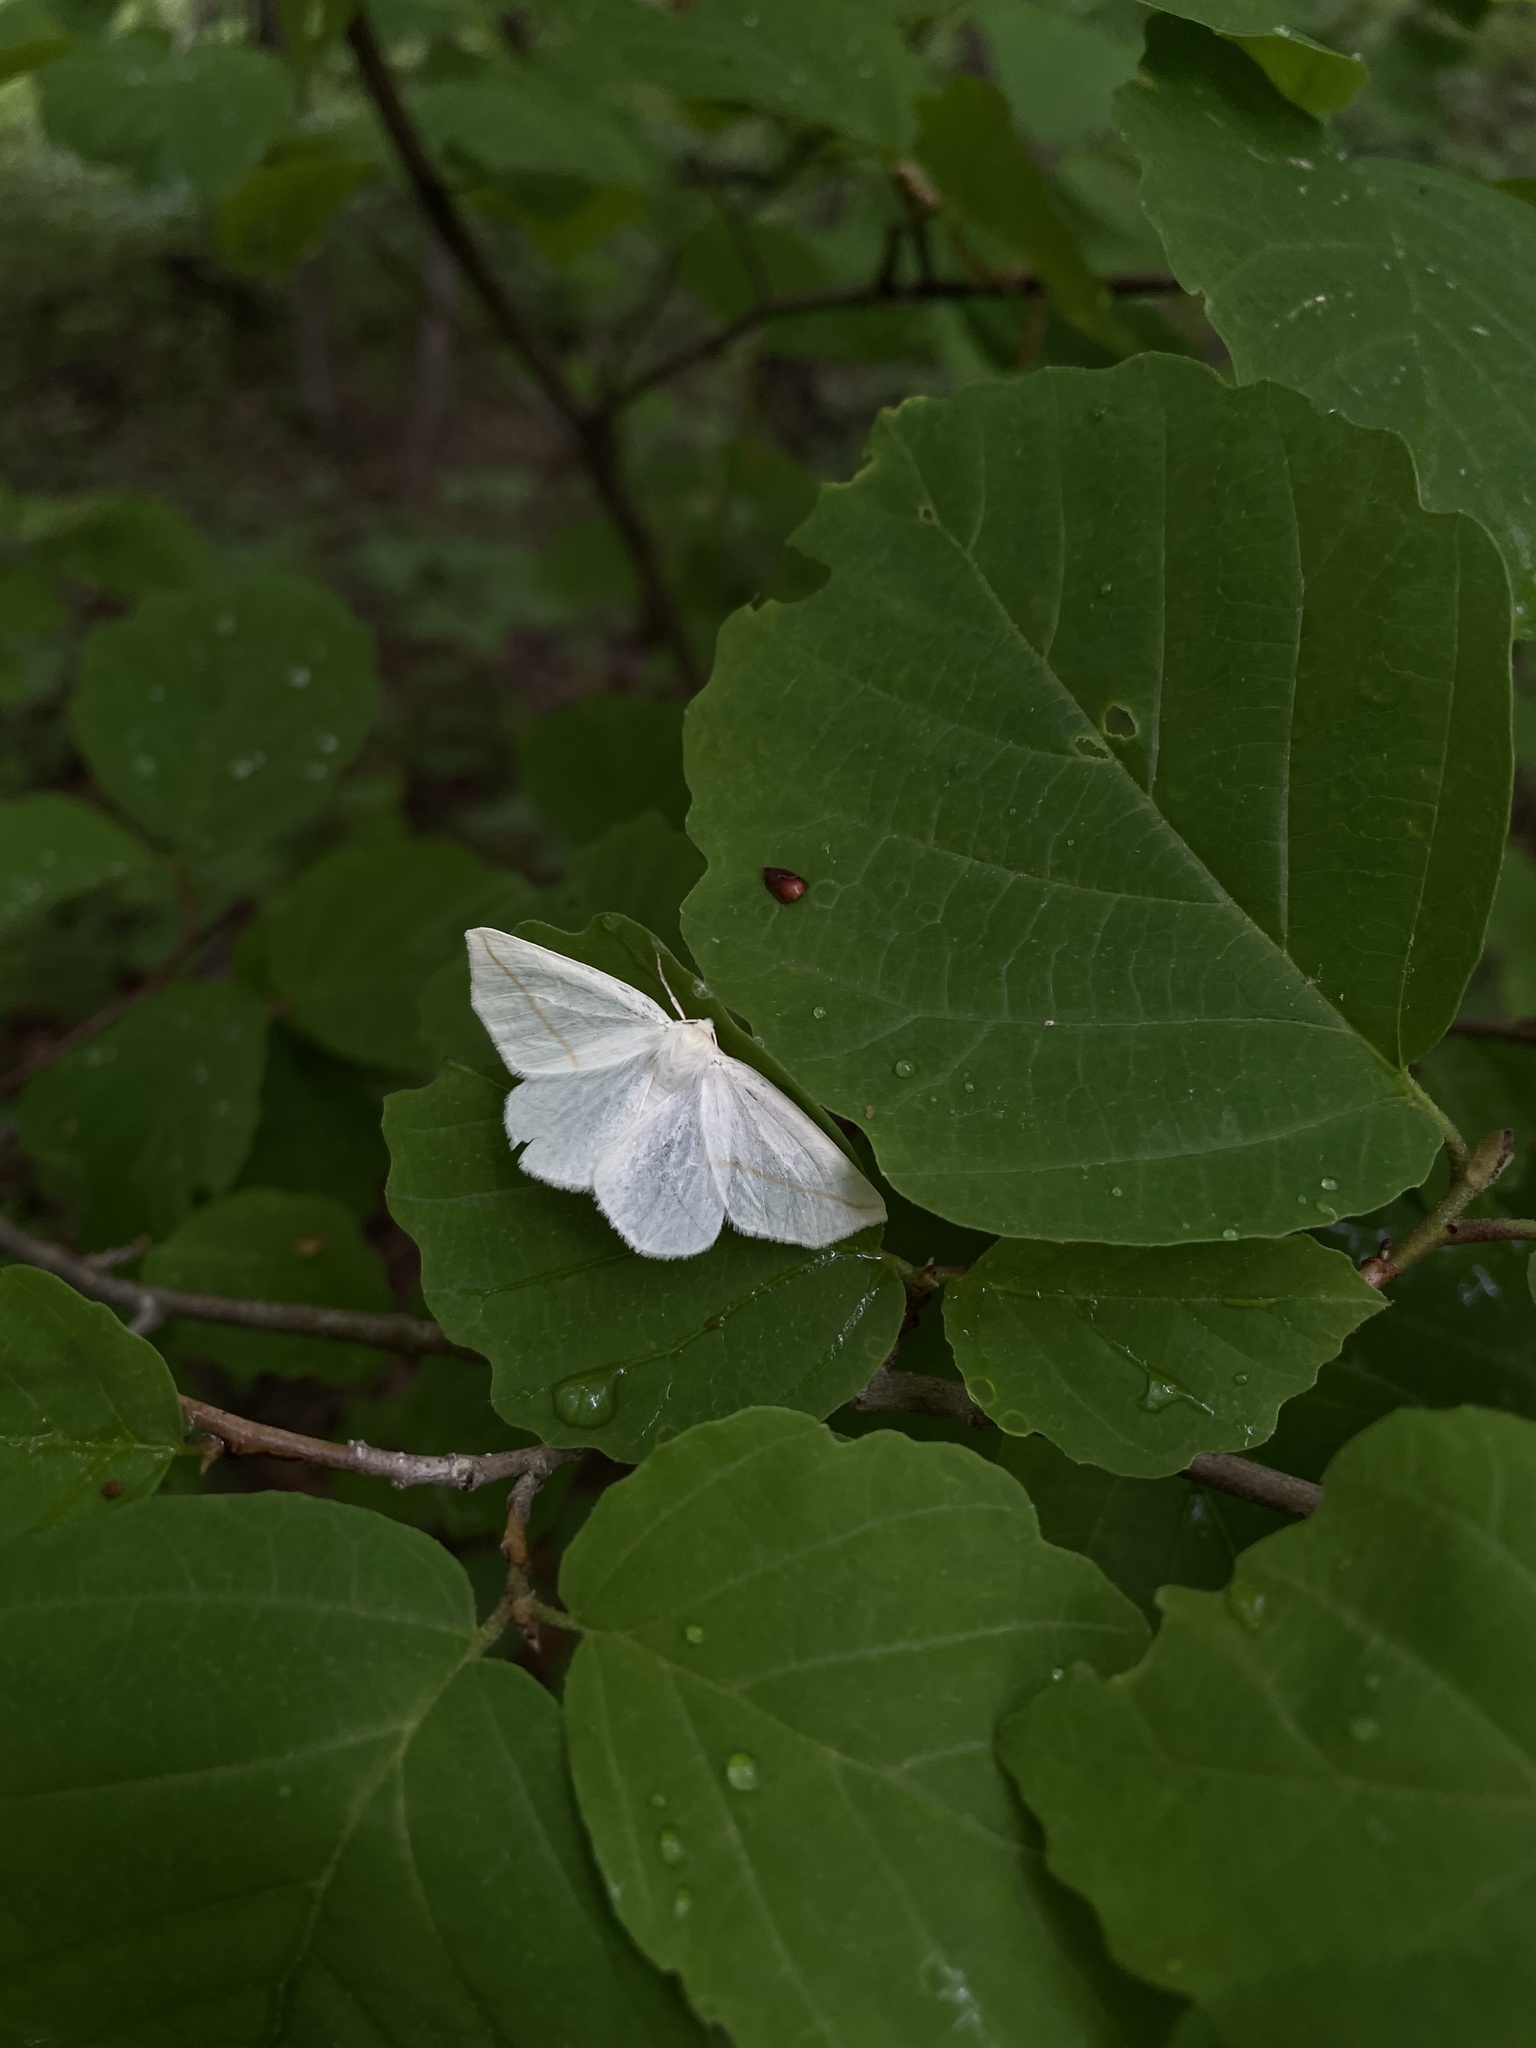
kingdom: Animalia
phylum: Arthropoda
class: Insecta
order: Lepidoptera
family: Geometridae
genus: Tetracis
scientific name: Tetracis cachexiata
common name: White slant-line
